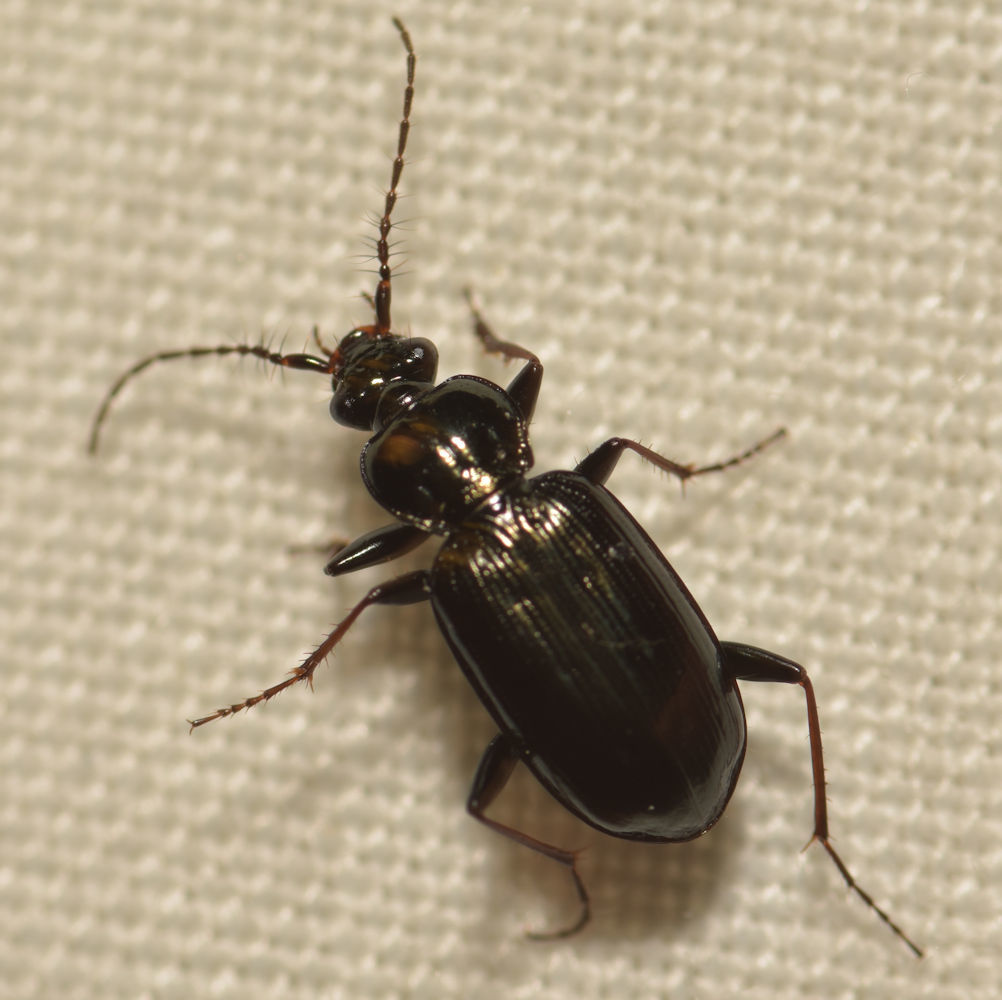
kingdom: Animalia
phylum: Arthropoda
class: Insecta
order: Coleoptera
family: Carabidae
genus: Loricera
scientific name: Loricera pilicornis
